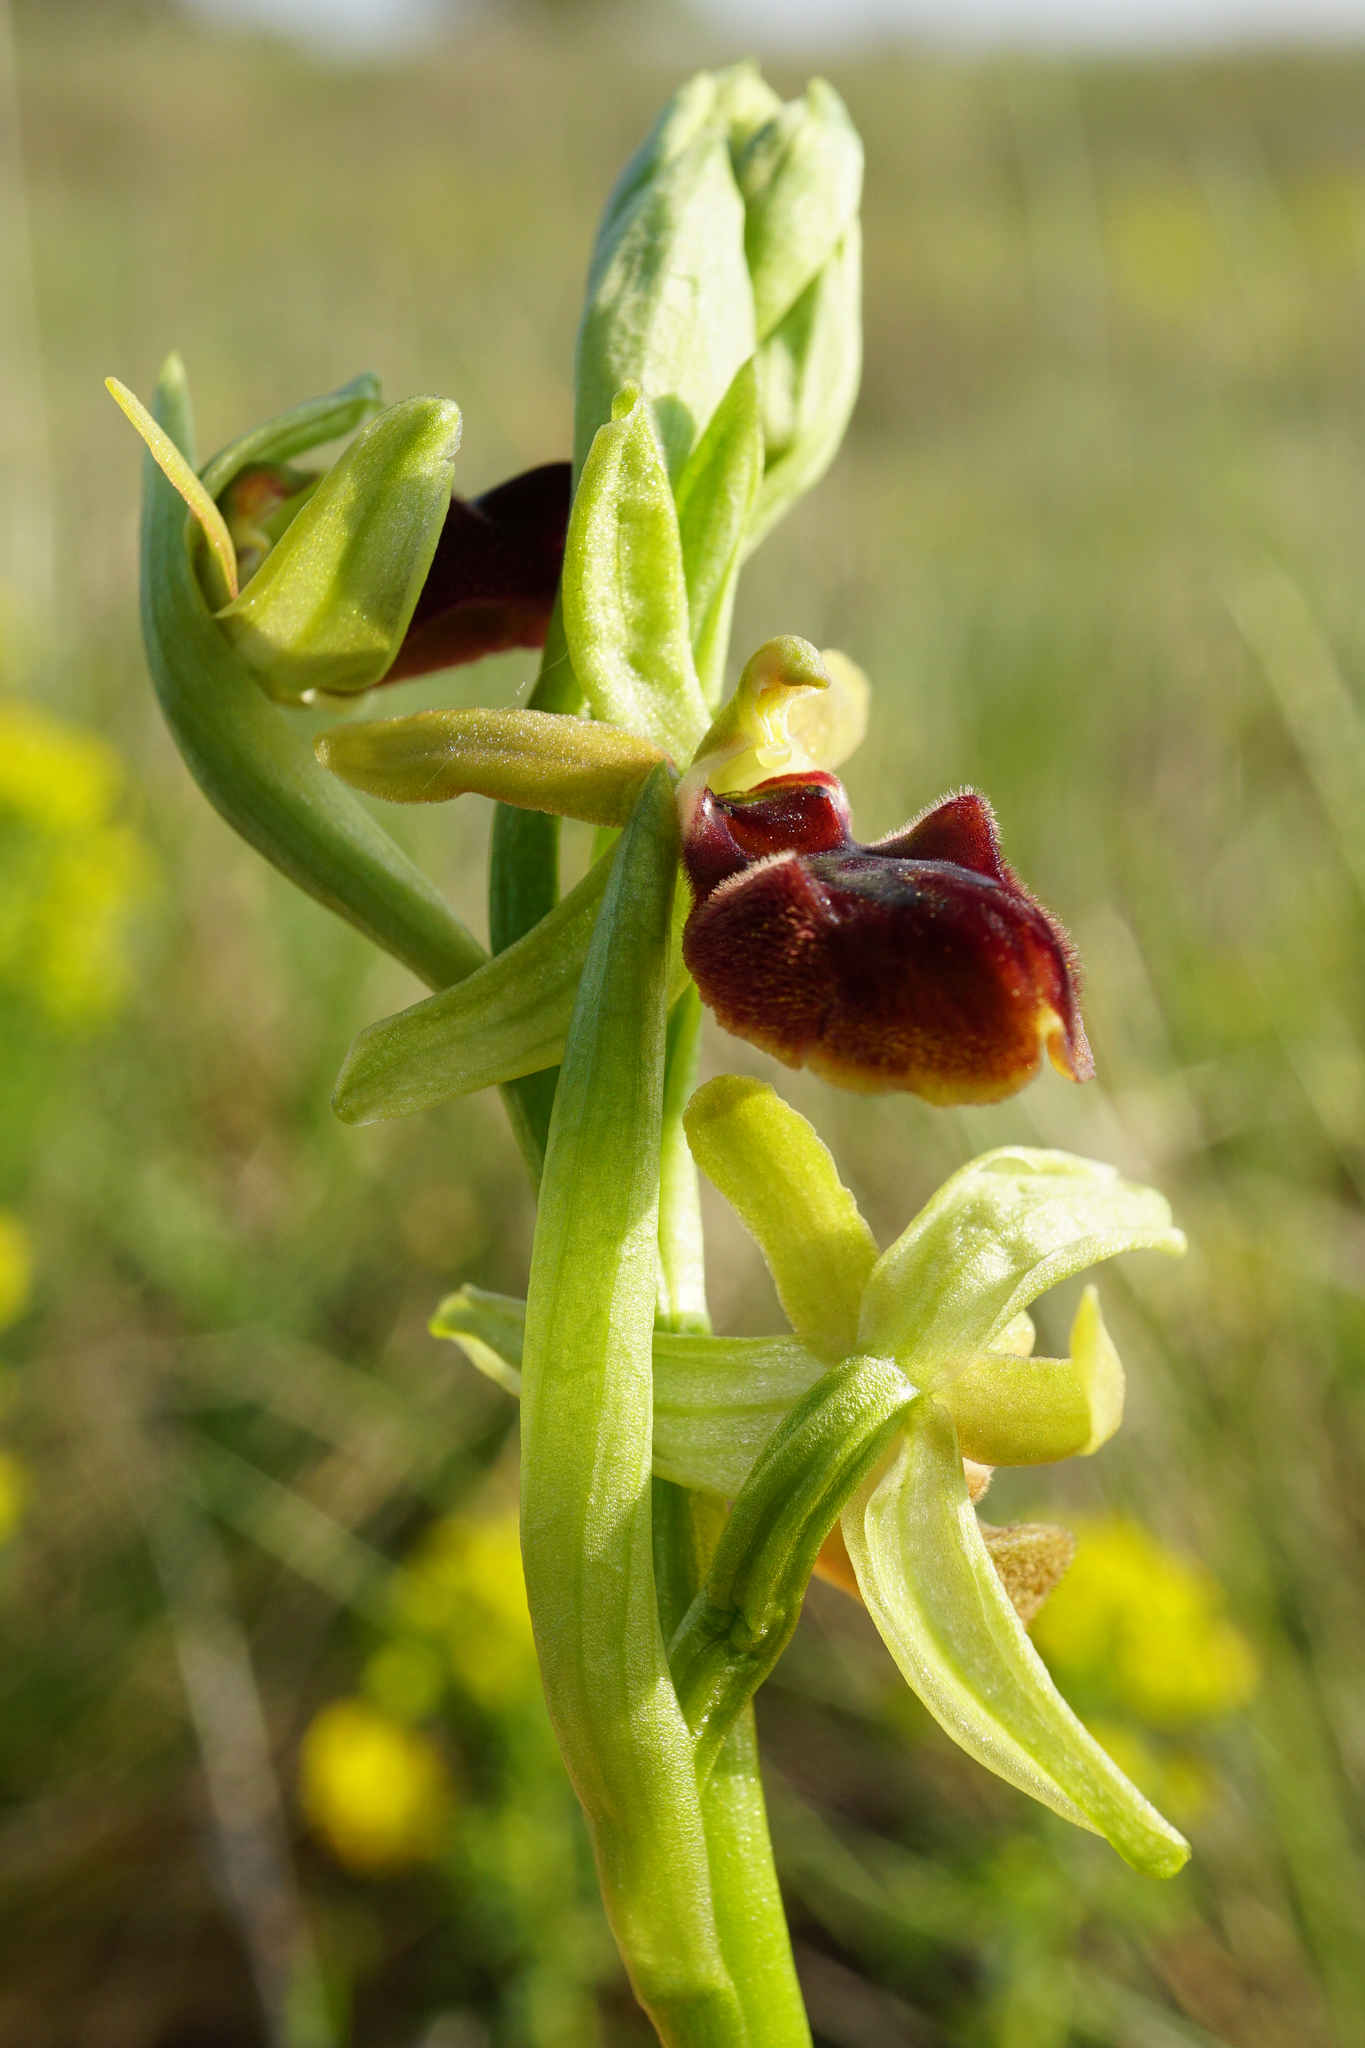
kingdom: Plantae
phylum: Tracheophyta
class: Liliopsida
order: Asparagales
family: Orchidaceae
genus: Ophrys
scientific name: Ophrys sphegodes
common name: Early spider-orchid
